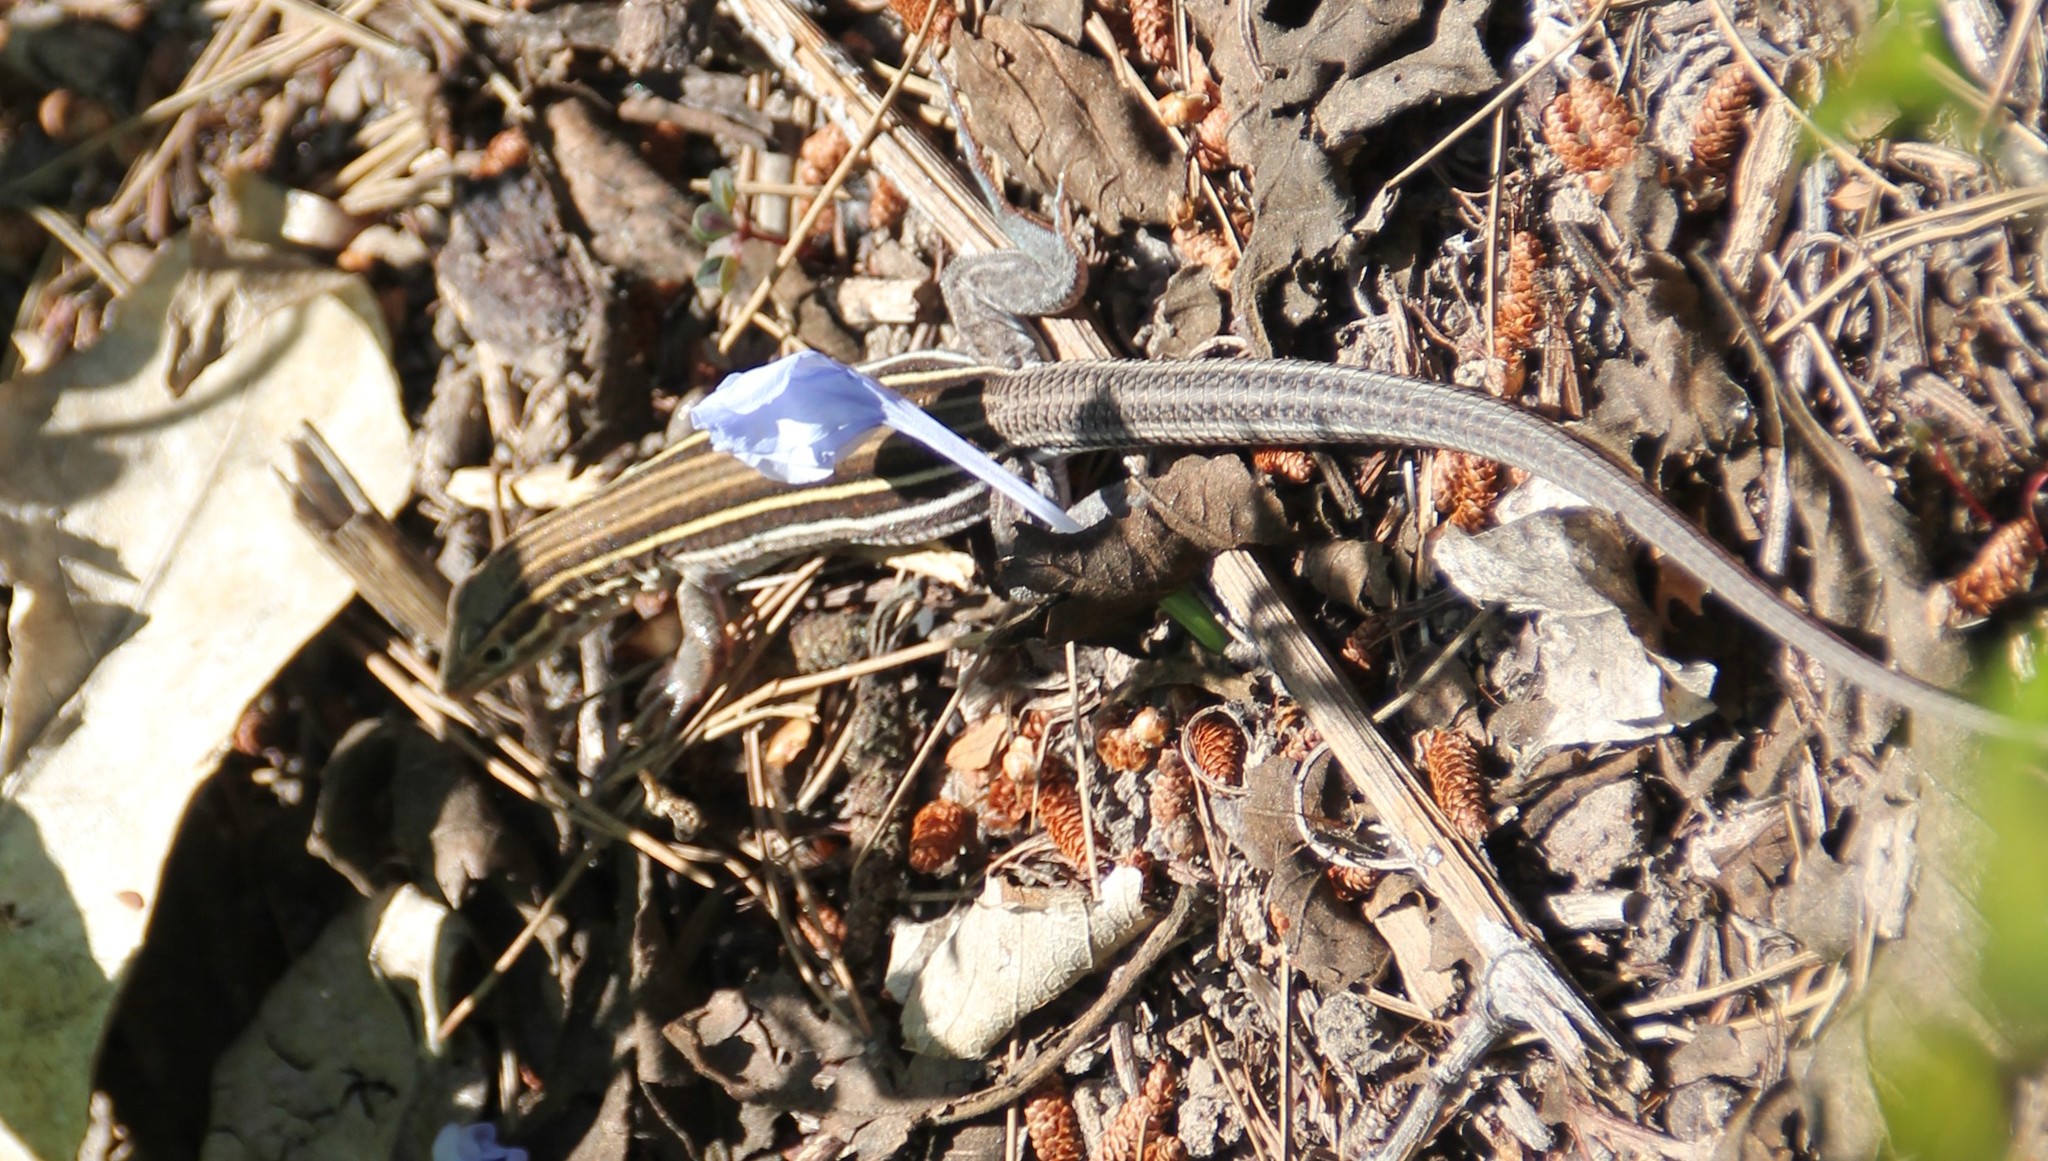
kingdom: Animalia
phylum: Chordata
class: Squamata
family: Teiidae
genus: Aspidoscelis
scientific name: Aspidoscelis hyperythrus
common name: Orange-throated race-runner
